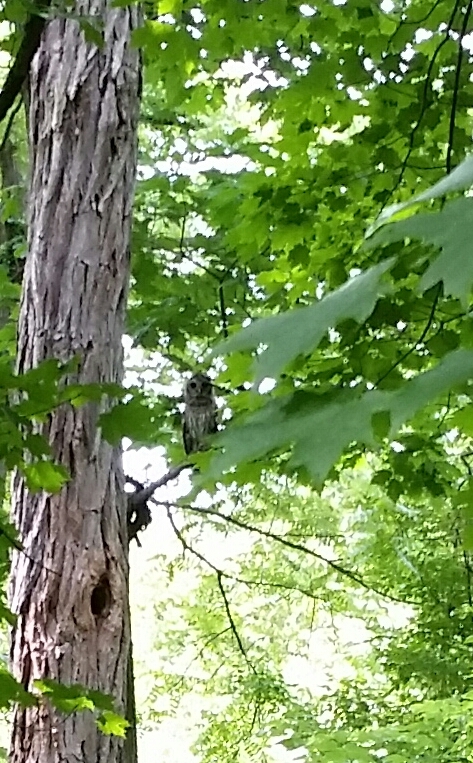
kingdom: Animalia
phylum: Chordata
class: Aves
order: Strigiformes
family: Strigidae
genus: Strix
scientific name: Strix varia
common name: Barred owl
